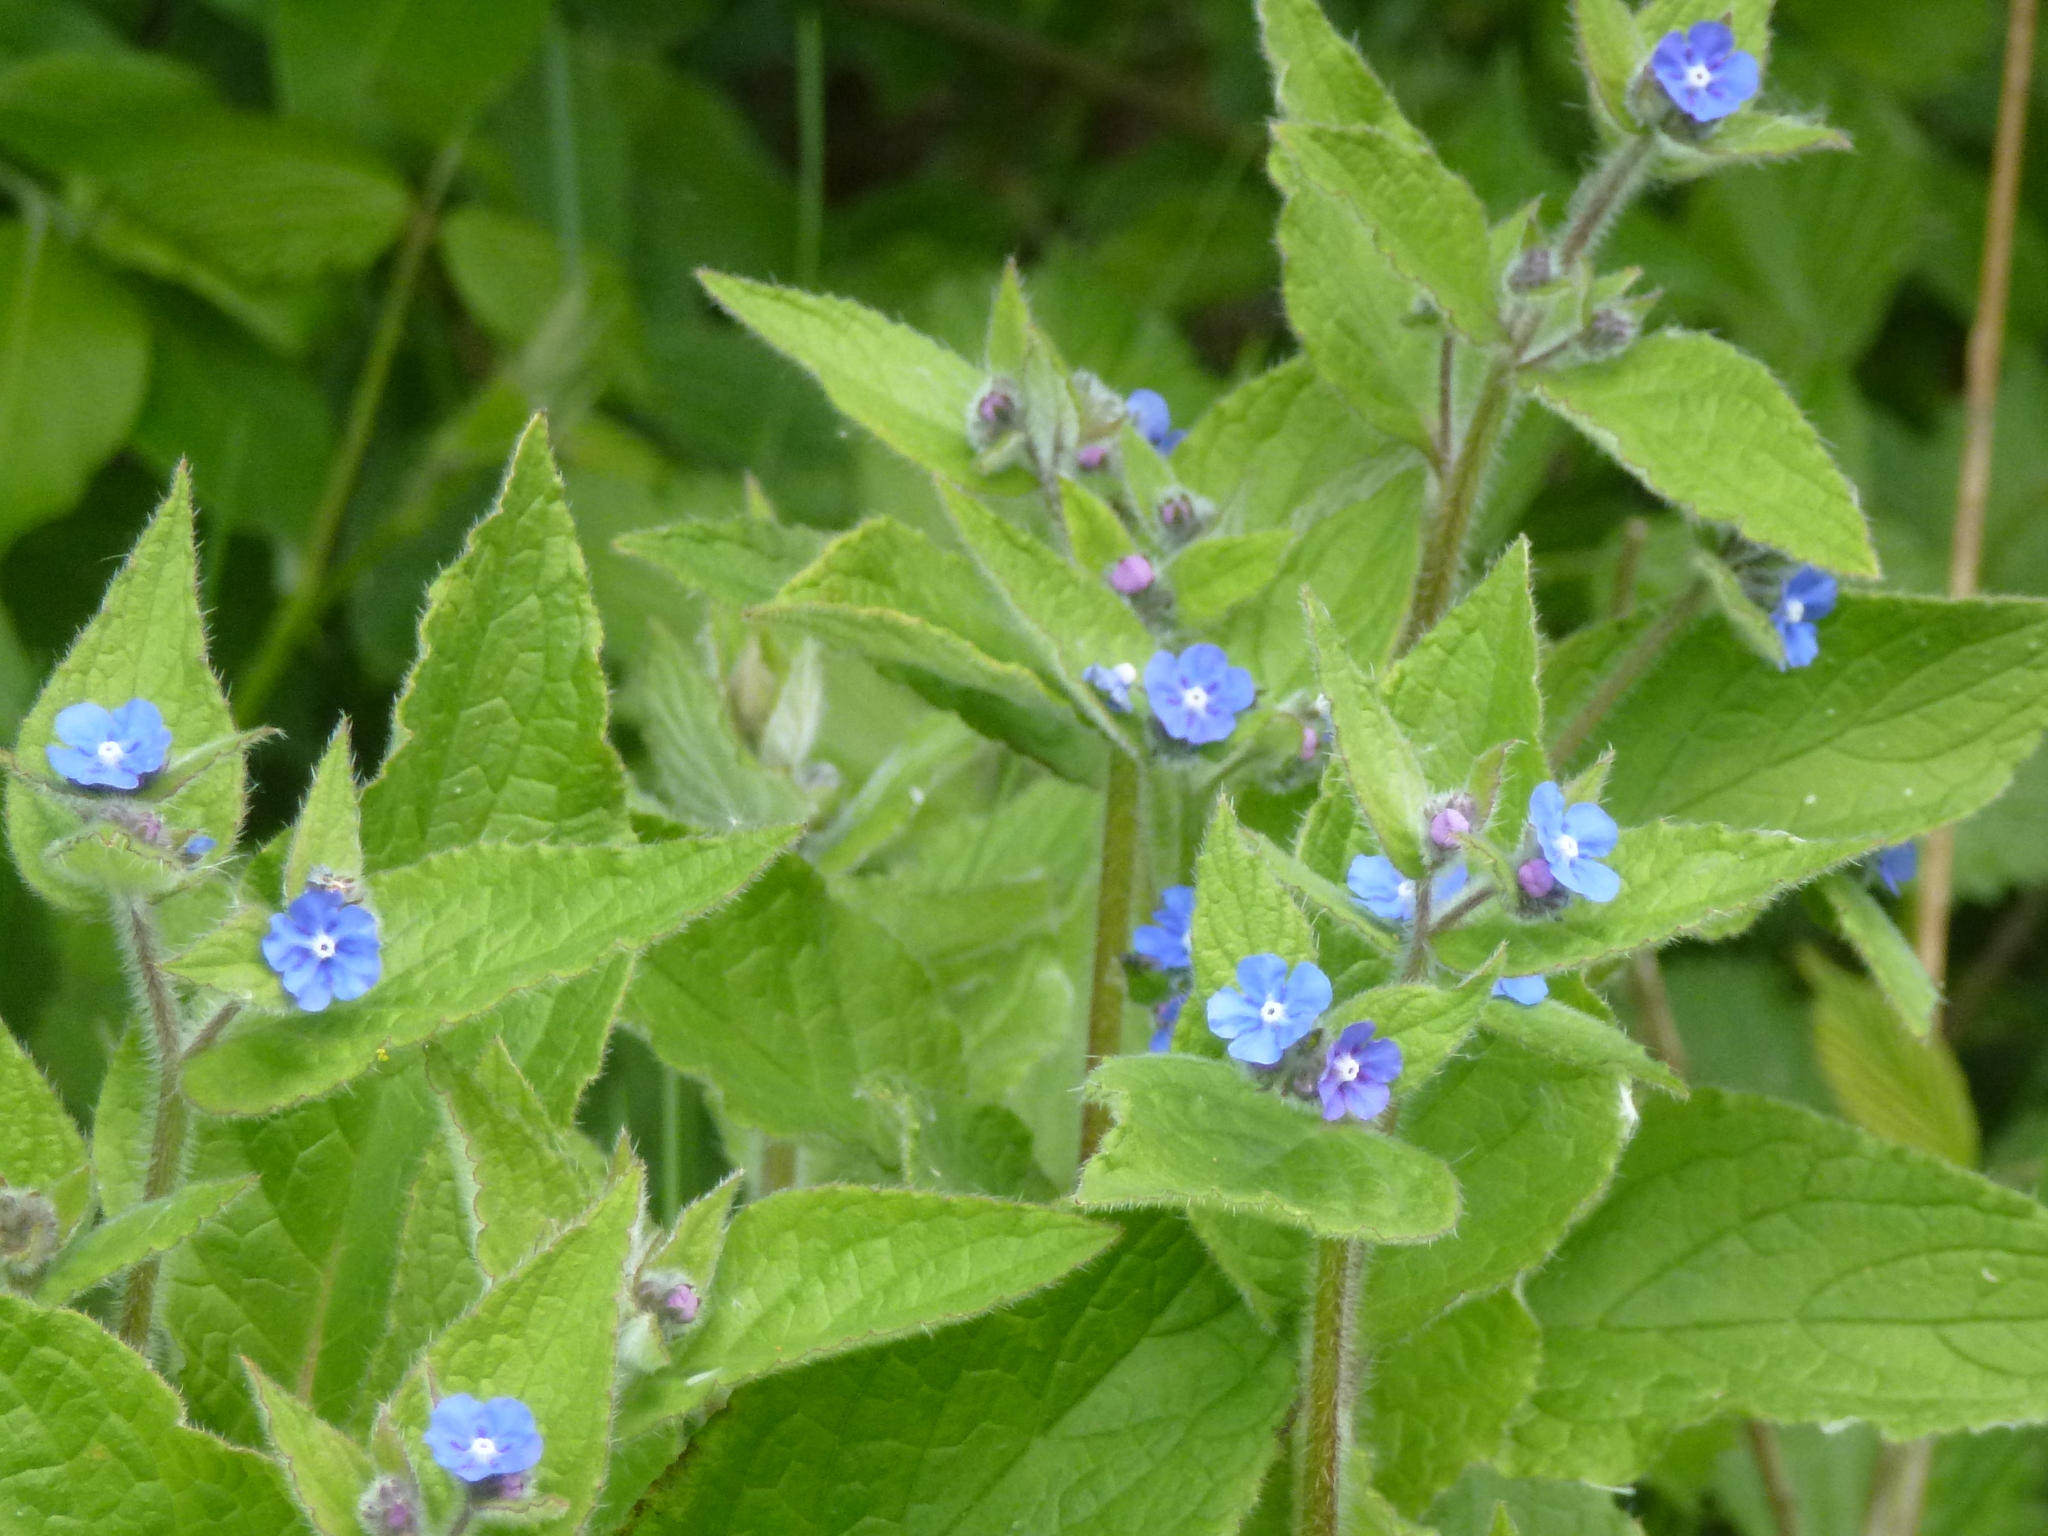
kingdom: Plantae
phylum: Tracheophyta
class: Magnoliopsida
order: Boraginales
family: Boraginaceae
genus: Pentaglottis
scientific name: Pentaglottis sempervirens
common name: Green alkanet
